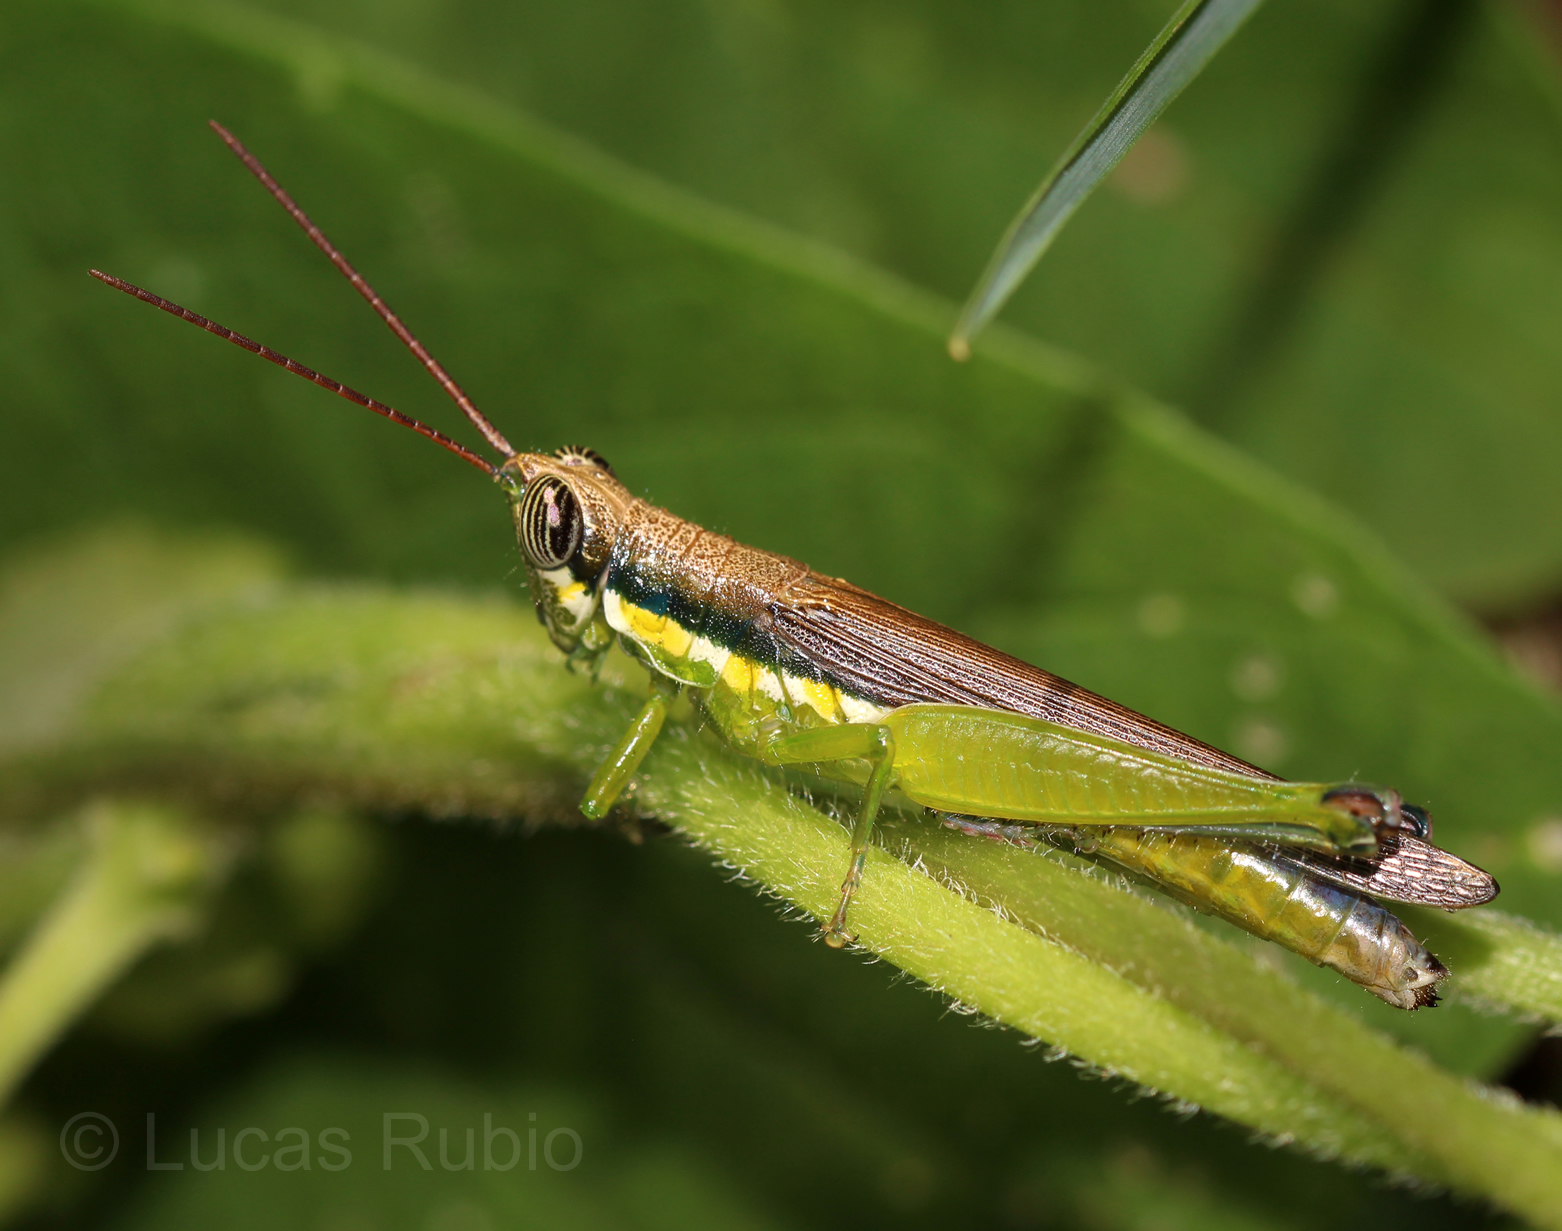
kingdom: Animalia
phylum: Arthropoda
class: Insecta
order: Orthoptera
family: Acrididae
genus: Stenopola
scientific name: Stenopola puncticeps
